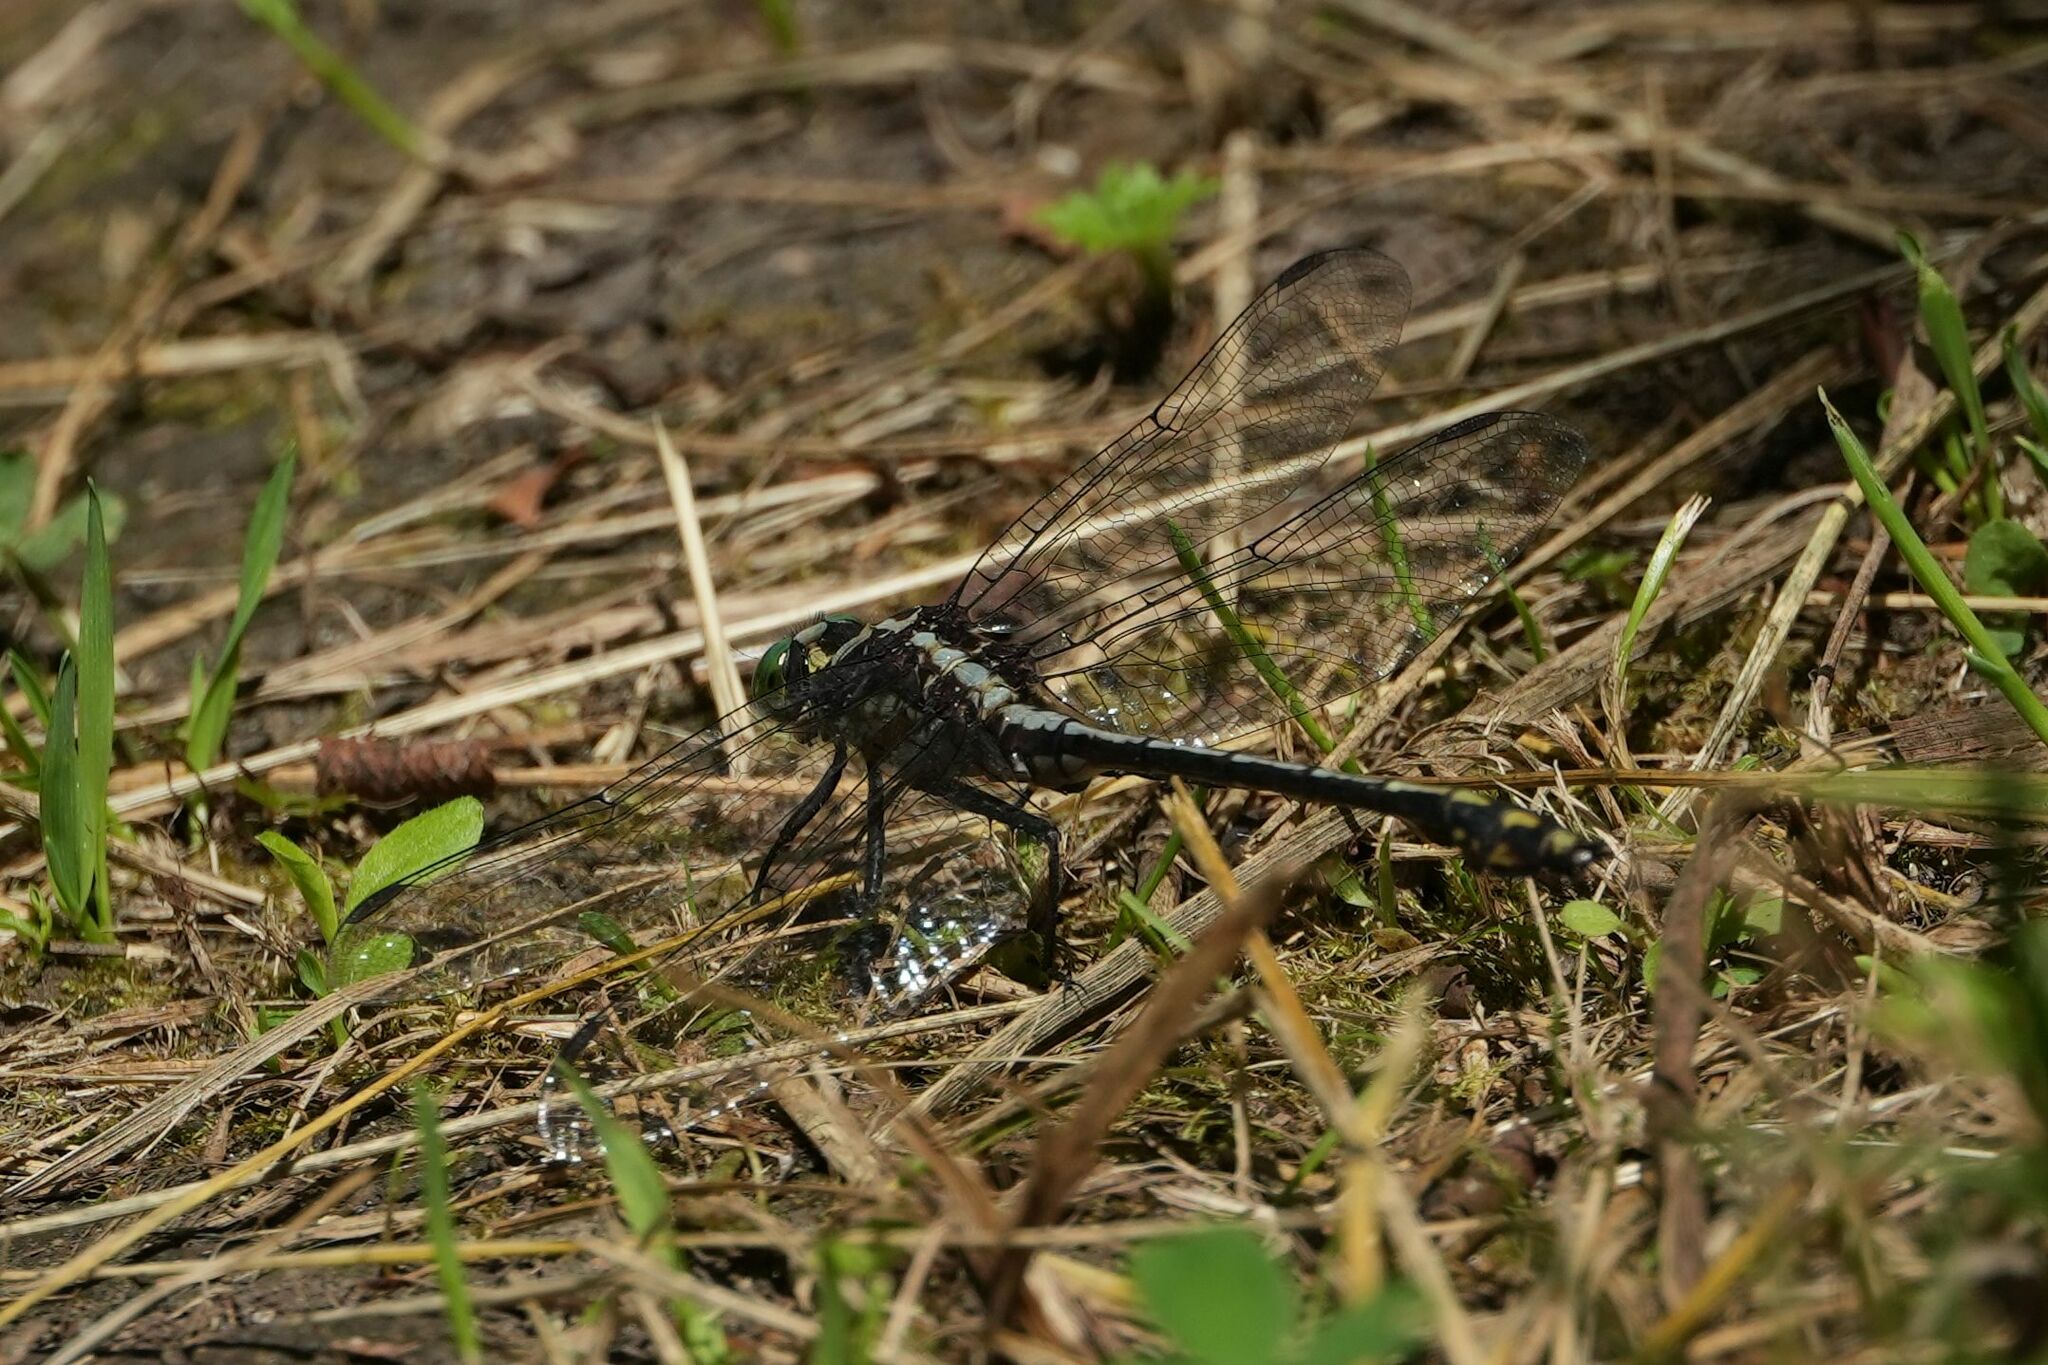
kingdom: Animalia
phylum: Arthropoda
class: Insecta
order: Odonata
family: Gomphidae
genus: Dromogomphus
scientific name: Dromogomphus spinosus
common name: Black-shouldered spinyleg
